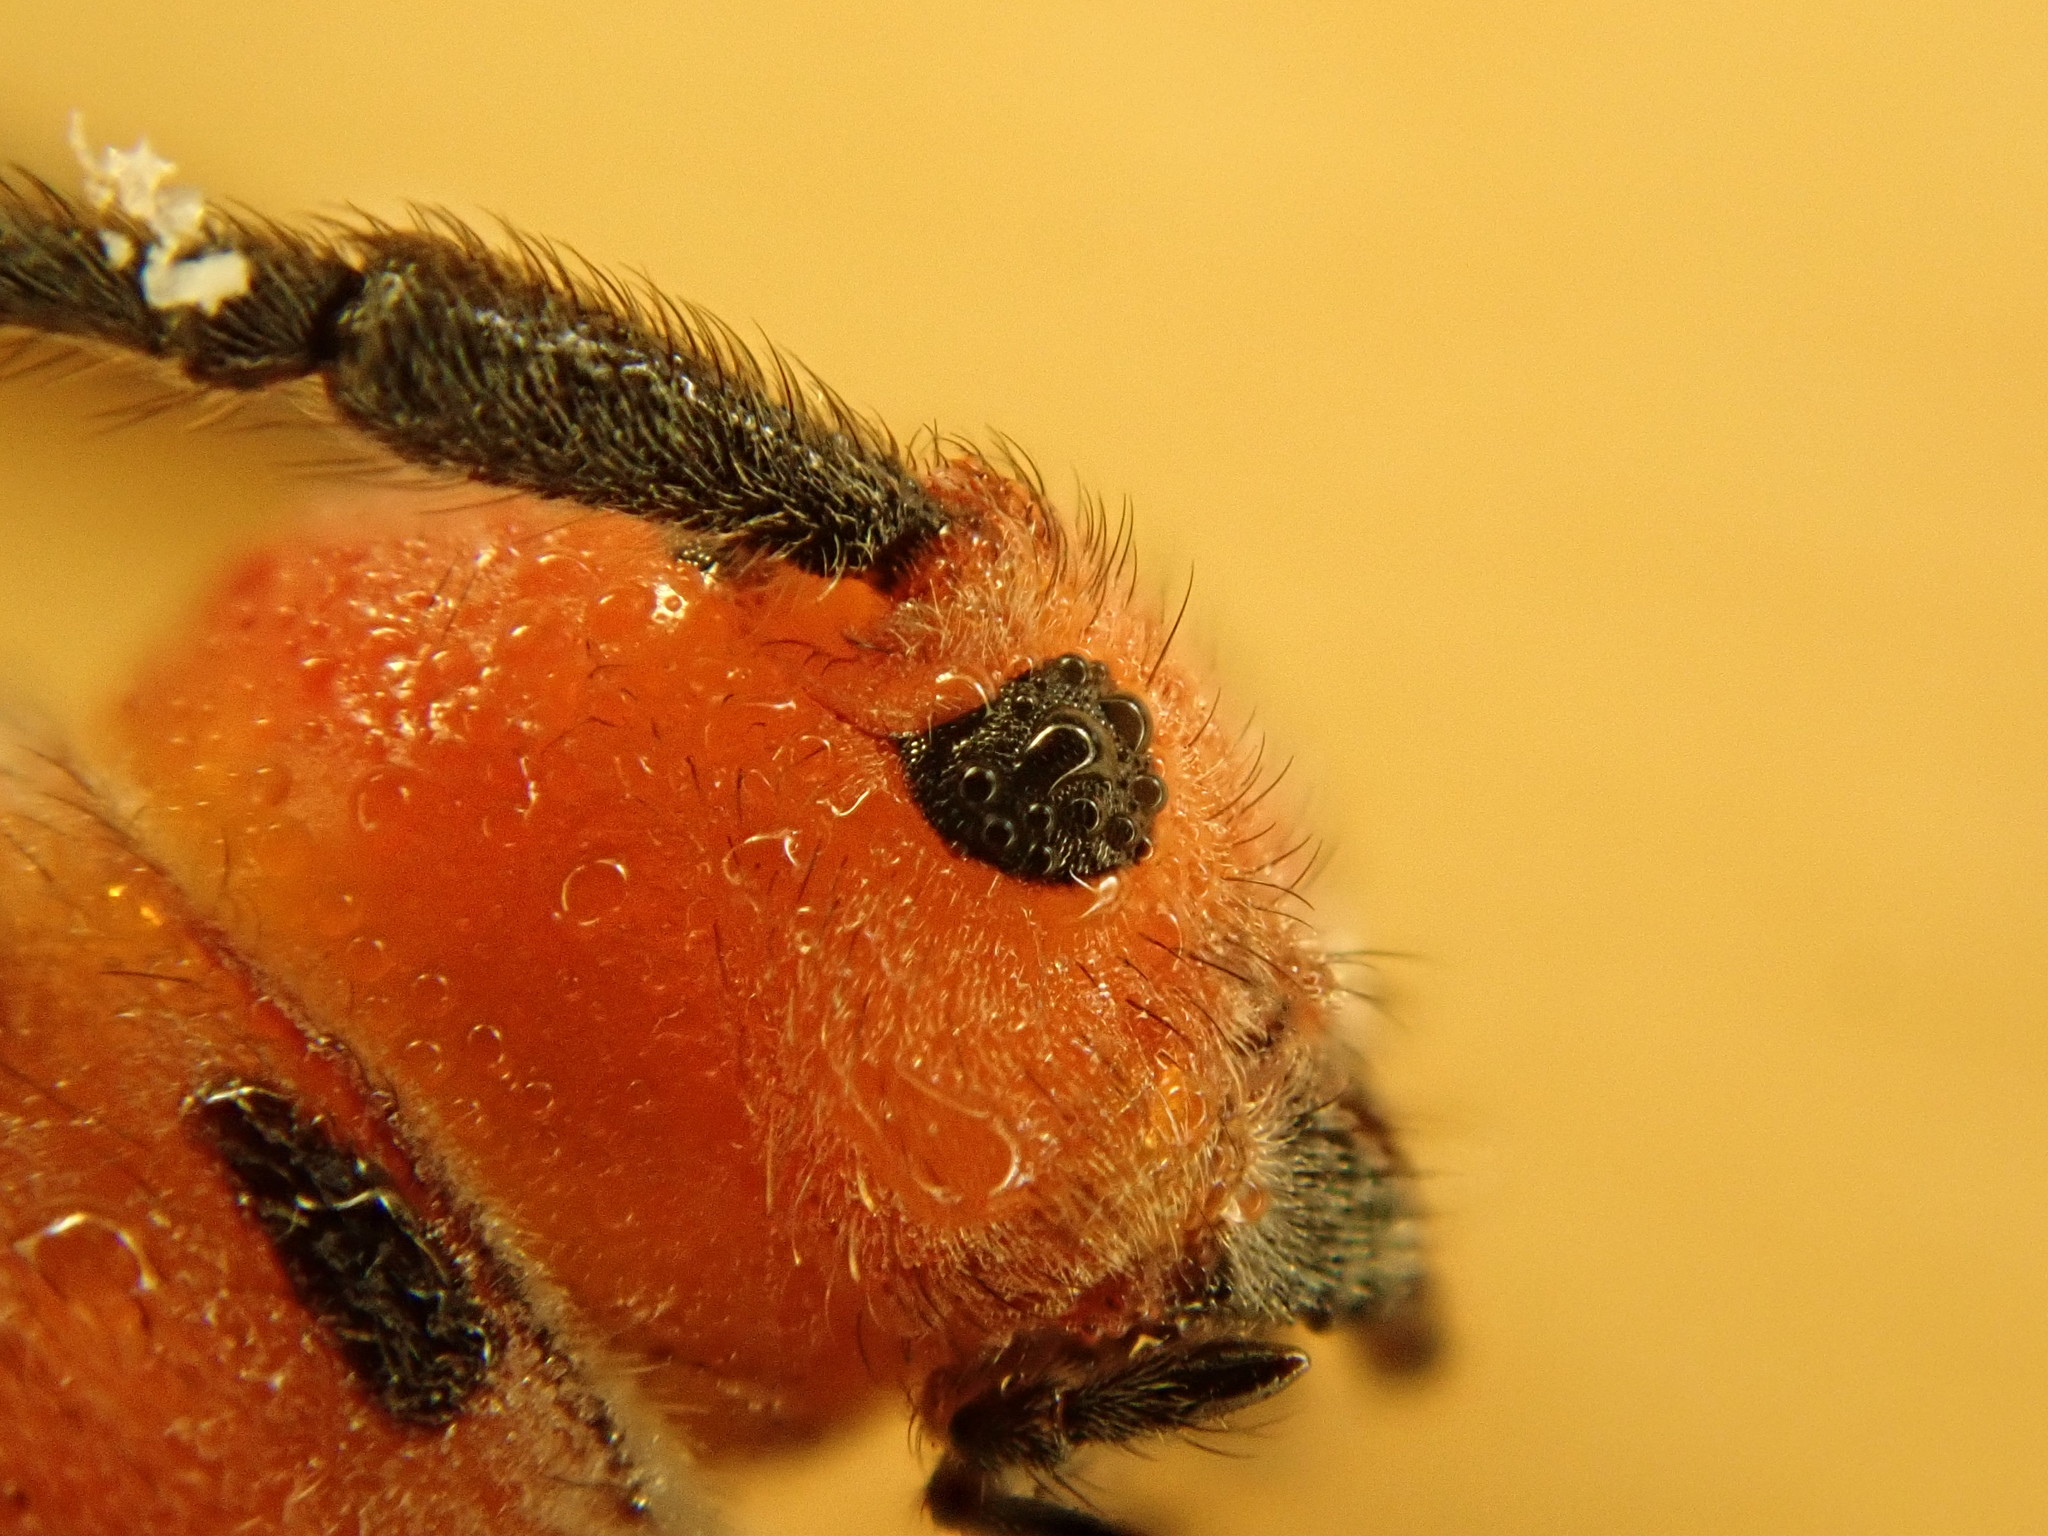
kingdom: Animalia
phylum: Arthropoda
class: Insecta
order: Coleoptera
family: Cerambycidae
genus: Tetraopes
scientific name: Tetraopes tetrophthalmus
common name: Red milkweed beetle
